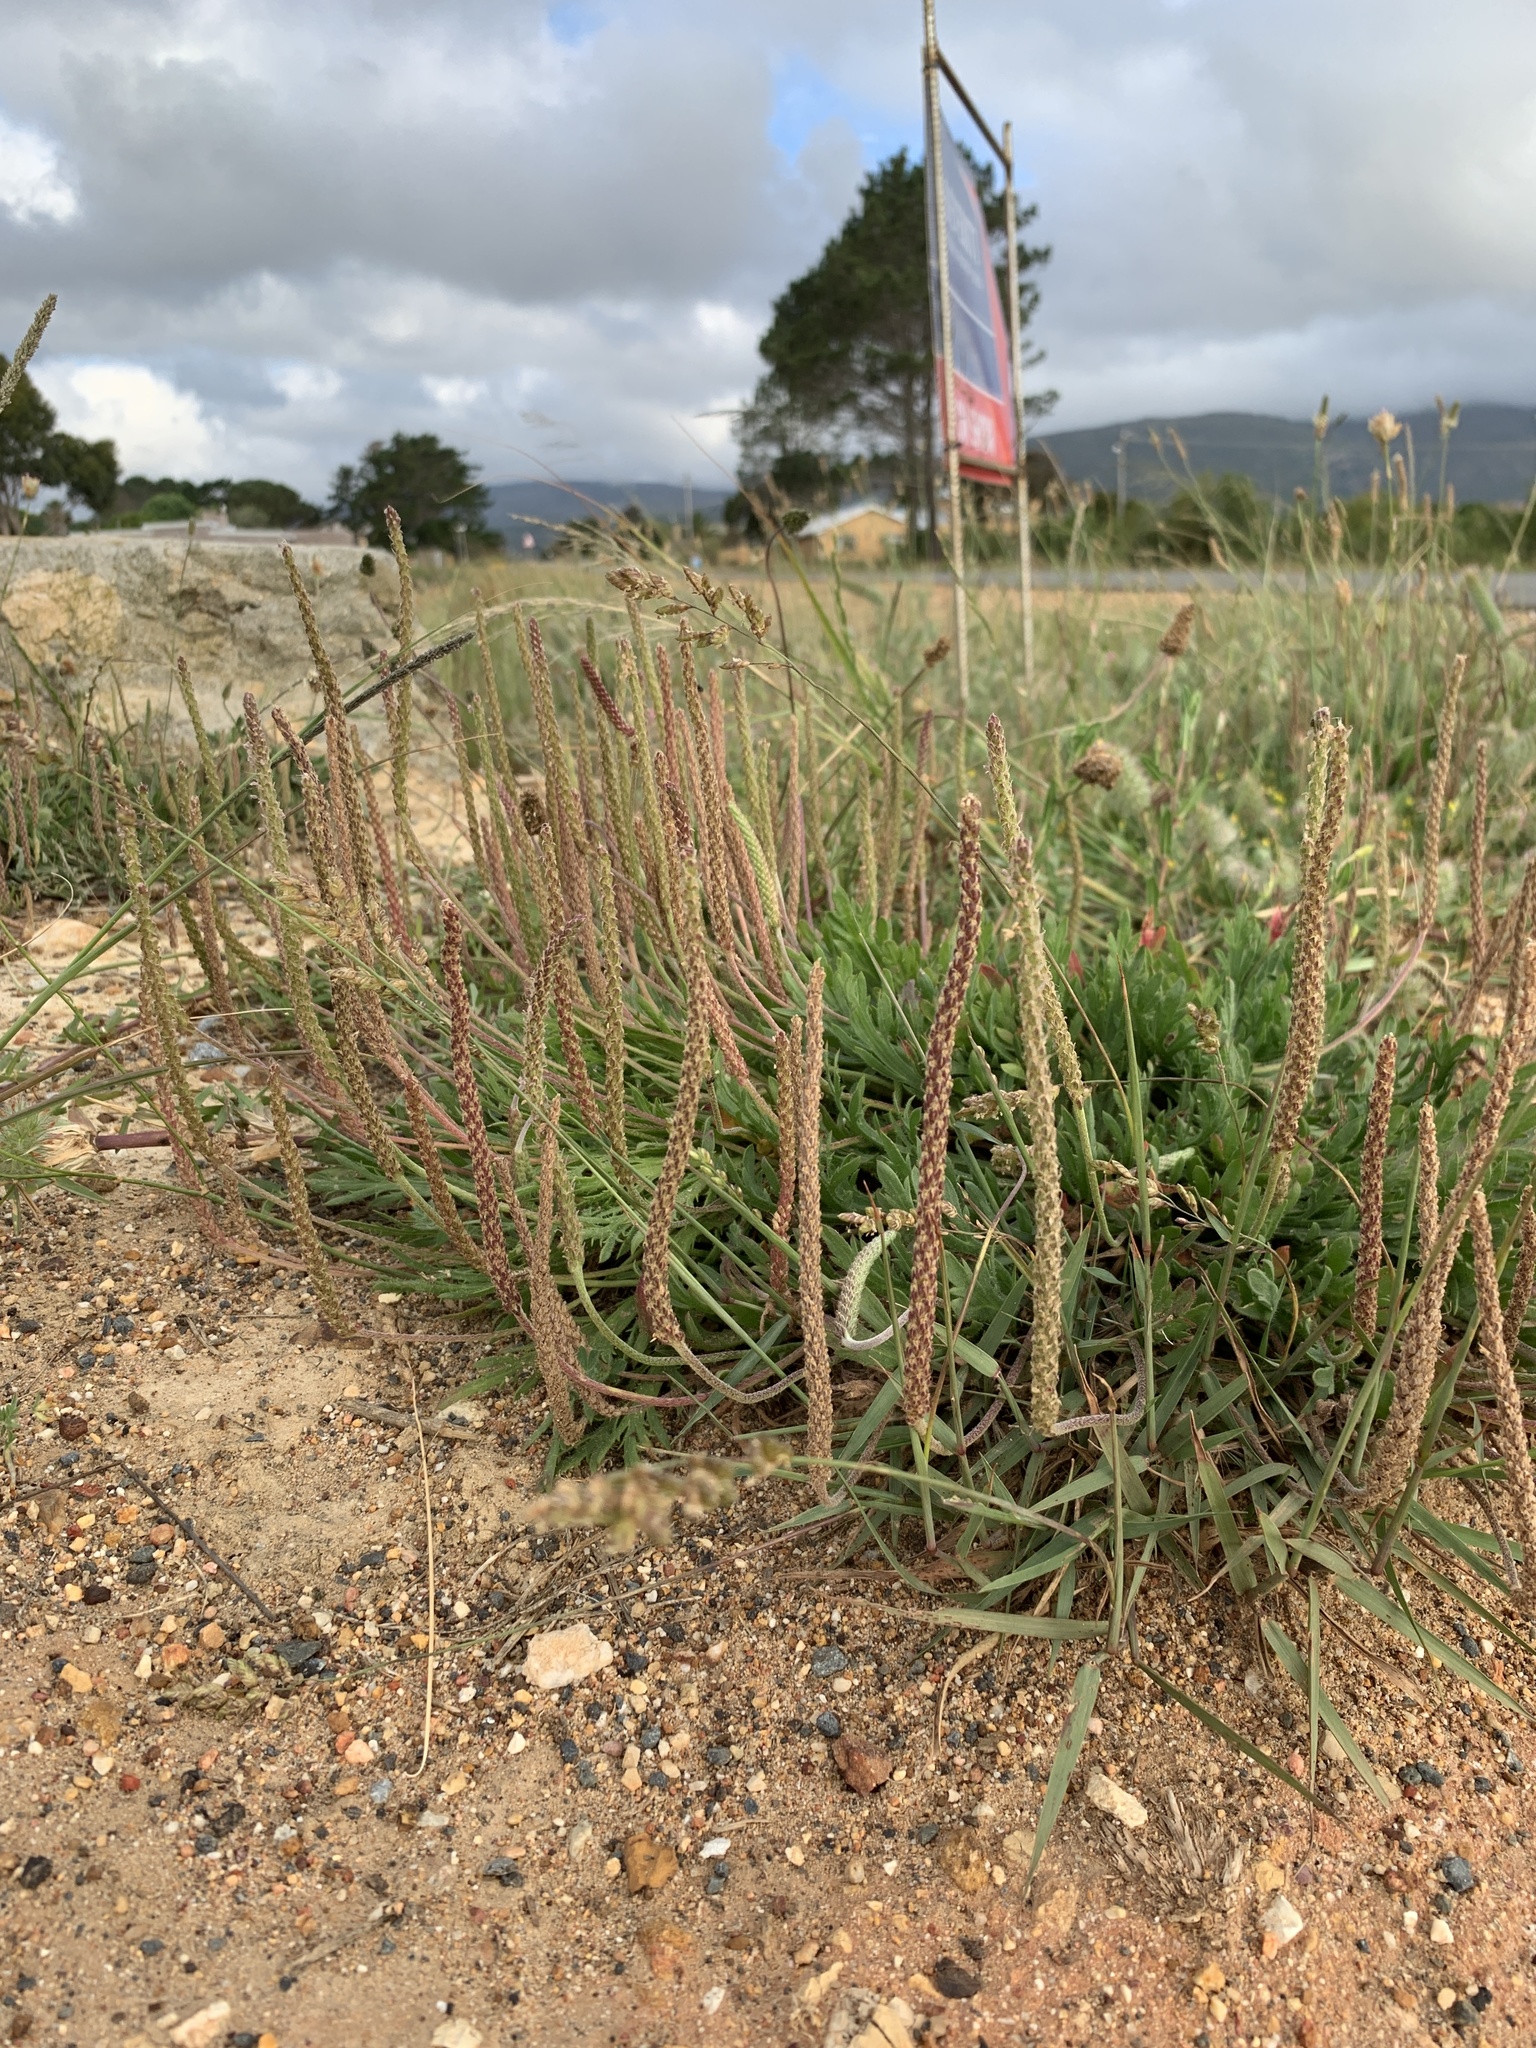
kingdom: Plantae
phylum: Tracheophyta
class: Magnoliopsida
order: Lamiales
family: Plantaginaceae
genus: Plantago
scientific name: Plantago coronopus
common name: Buck's-horn plantain
